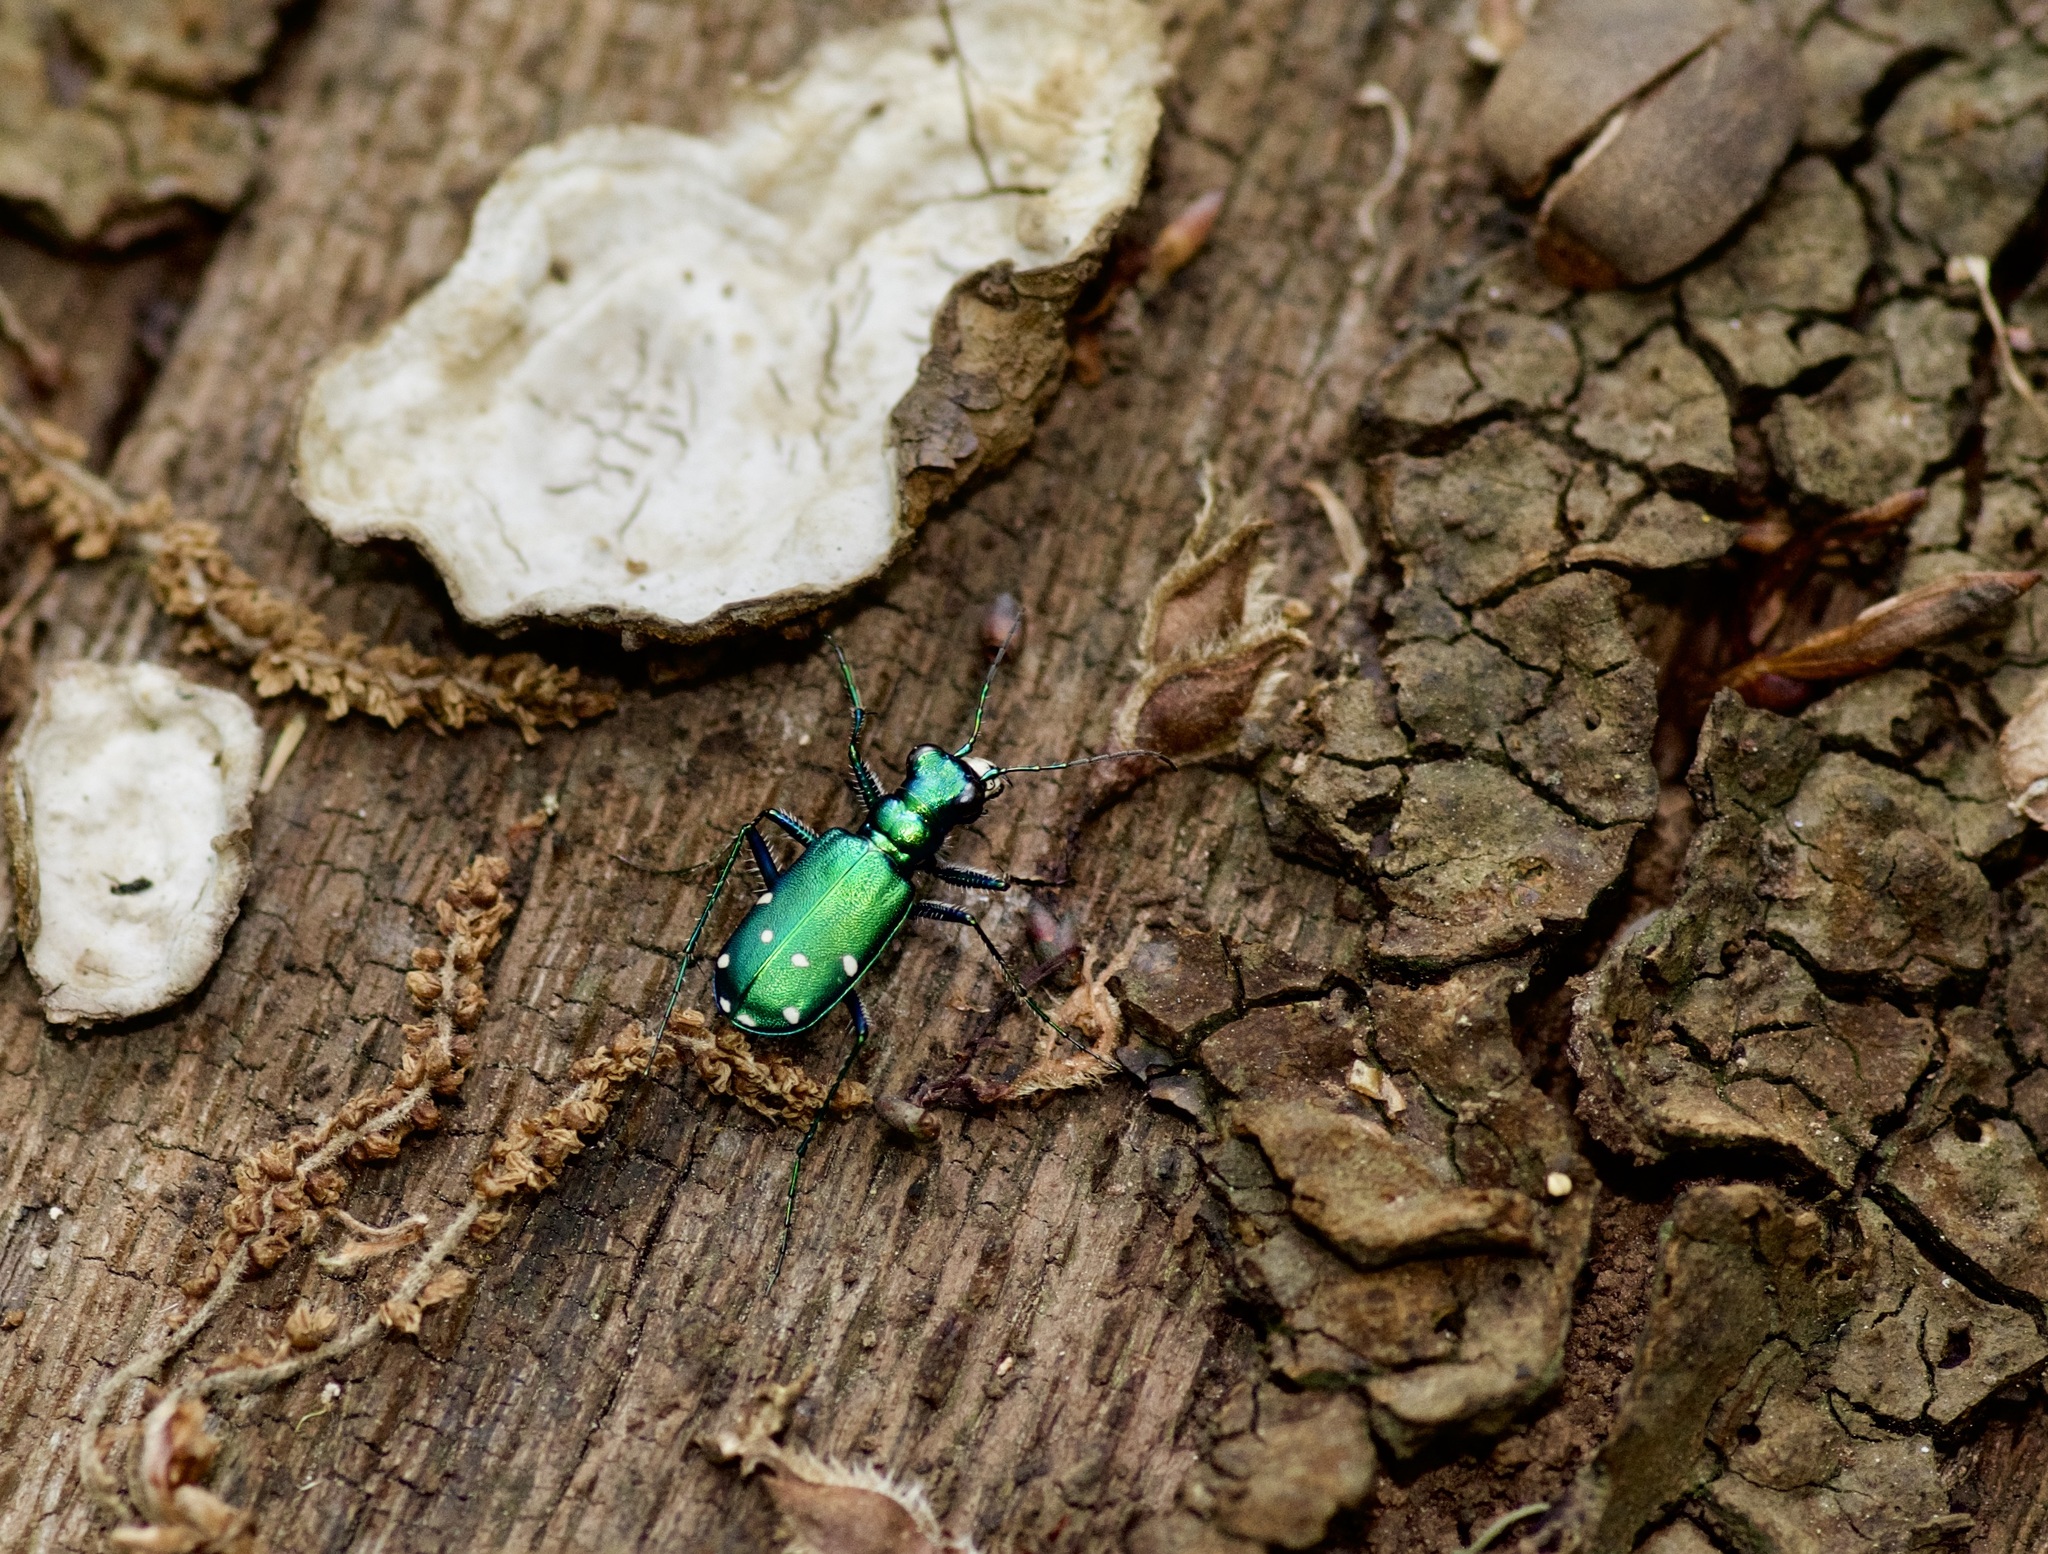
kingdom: Animalia
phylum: Arthropoda
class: Insecta
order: Coleoptera
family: Carabidae
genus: Cicindela
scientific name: Cicindela sexguttata
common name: Six-spotted tiger beetle
